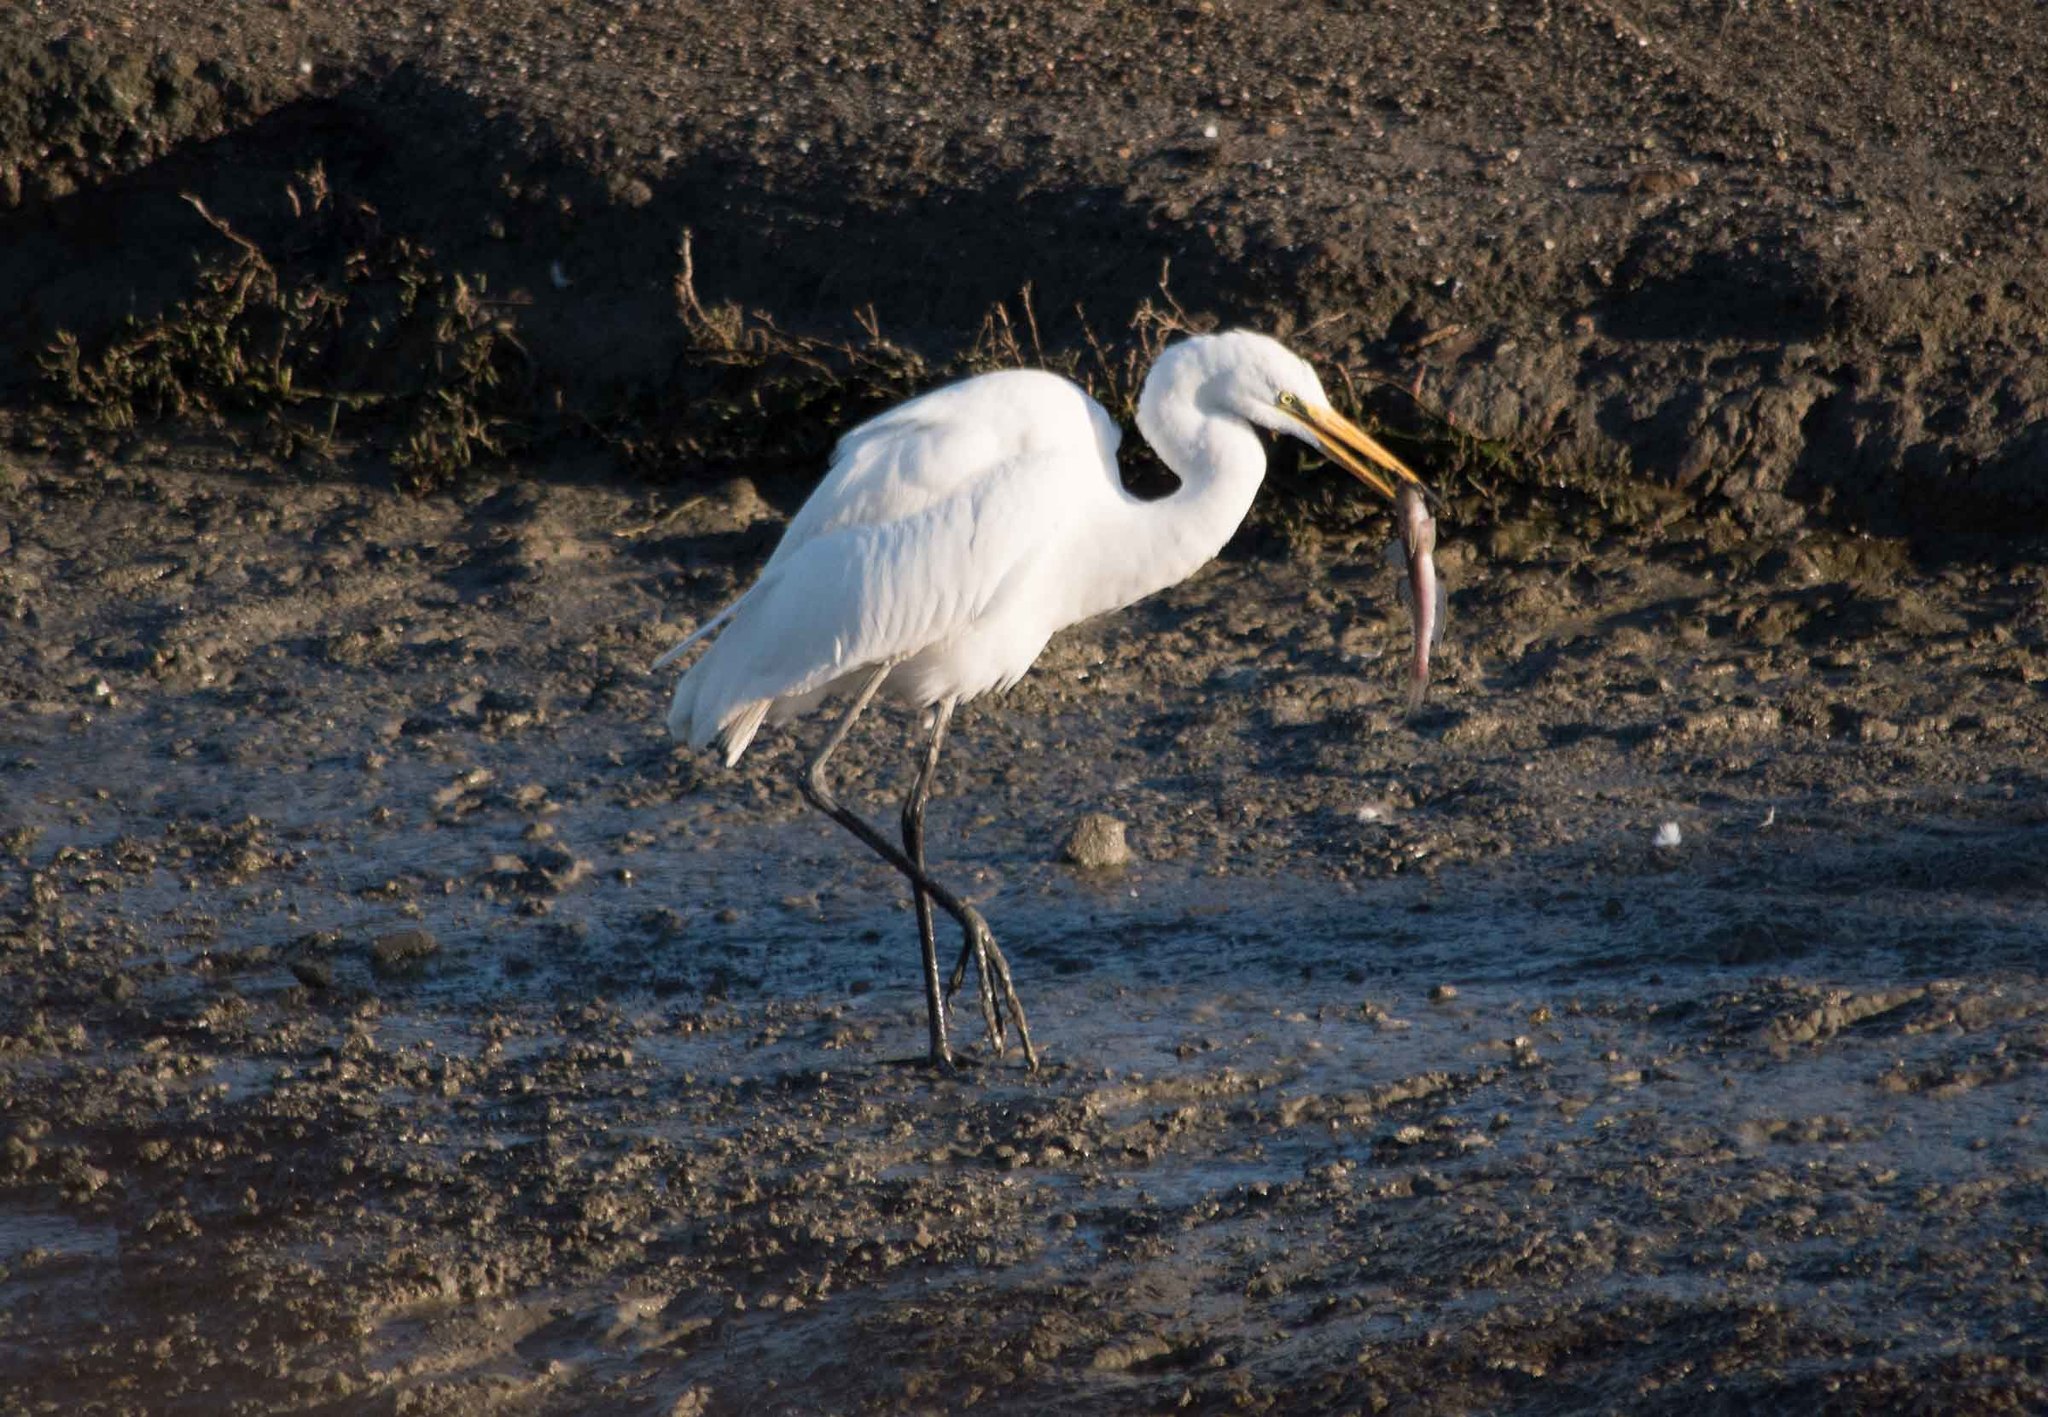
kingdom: Animalia
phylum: Chordata
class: Aves
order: Pelecaniformes
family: Ardeidae
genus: Ardea
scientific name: Ardea alba
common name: Great egret
